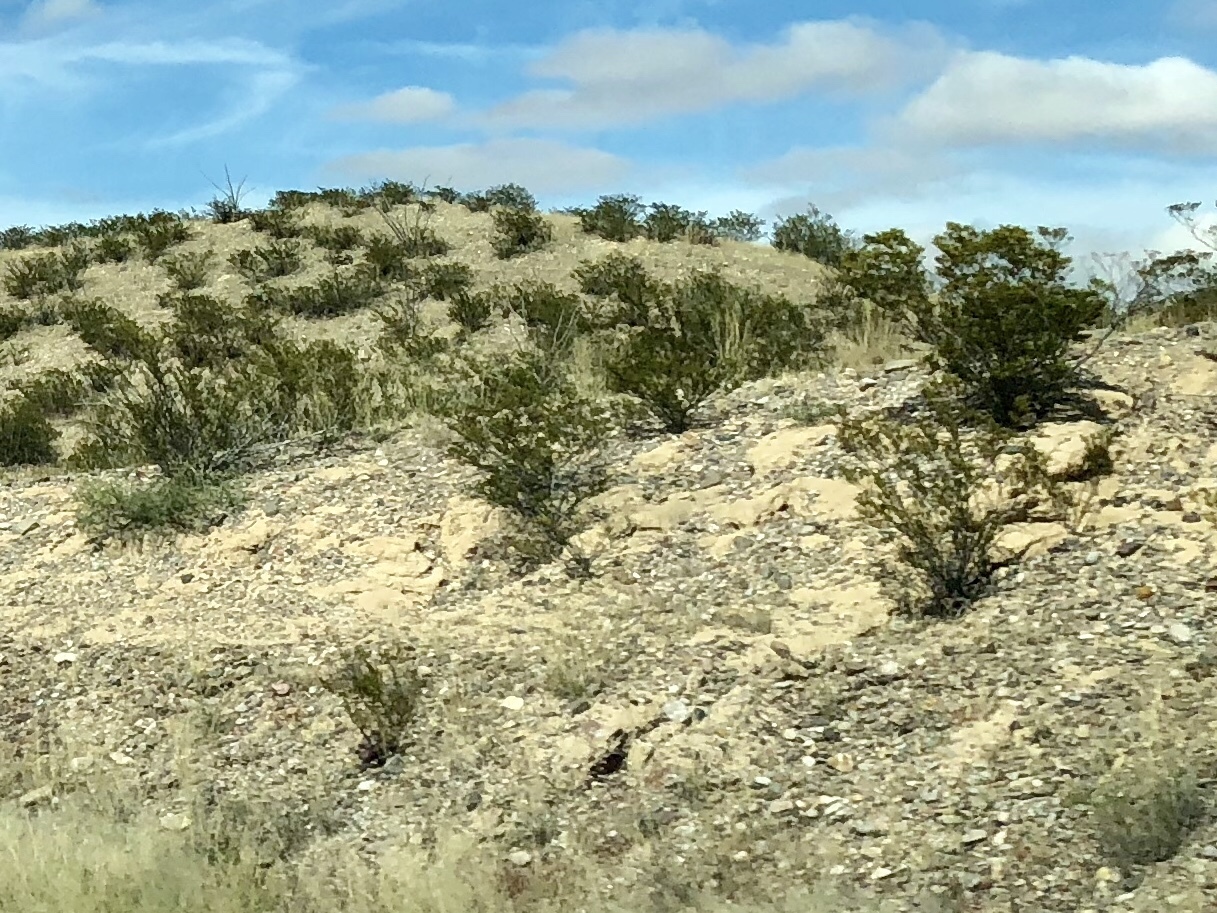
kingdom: Plantae
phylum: Tracheophyta
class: Magnoliopsida
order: Zygophyllales
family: Zygophyllaceae
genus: Larrea
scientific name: Larrea tridentata
